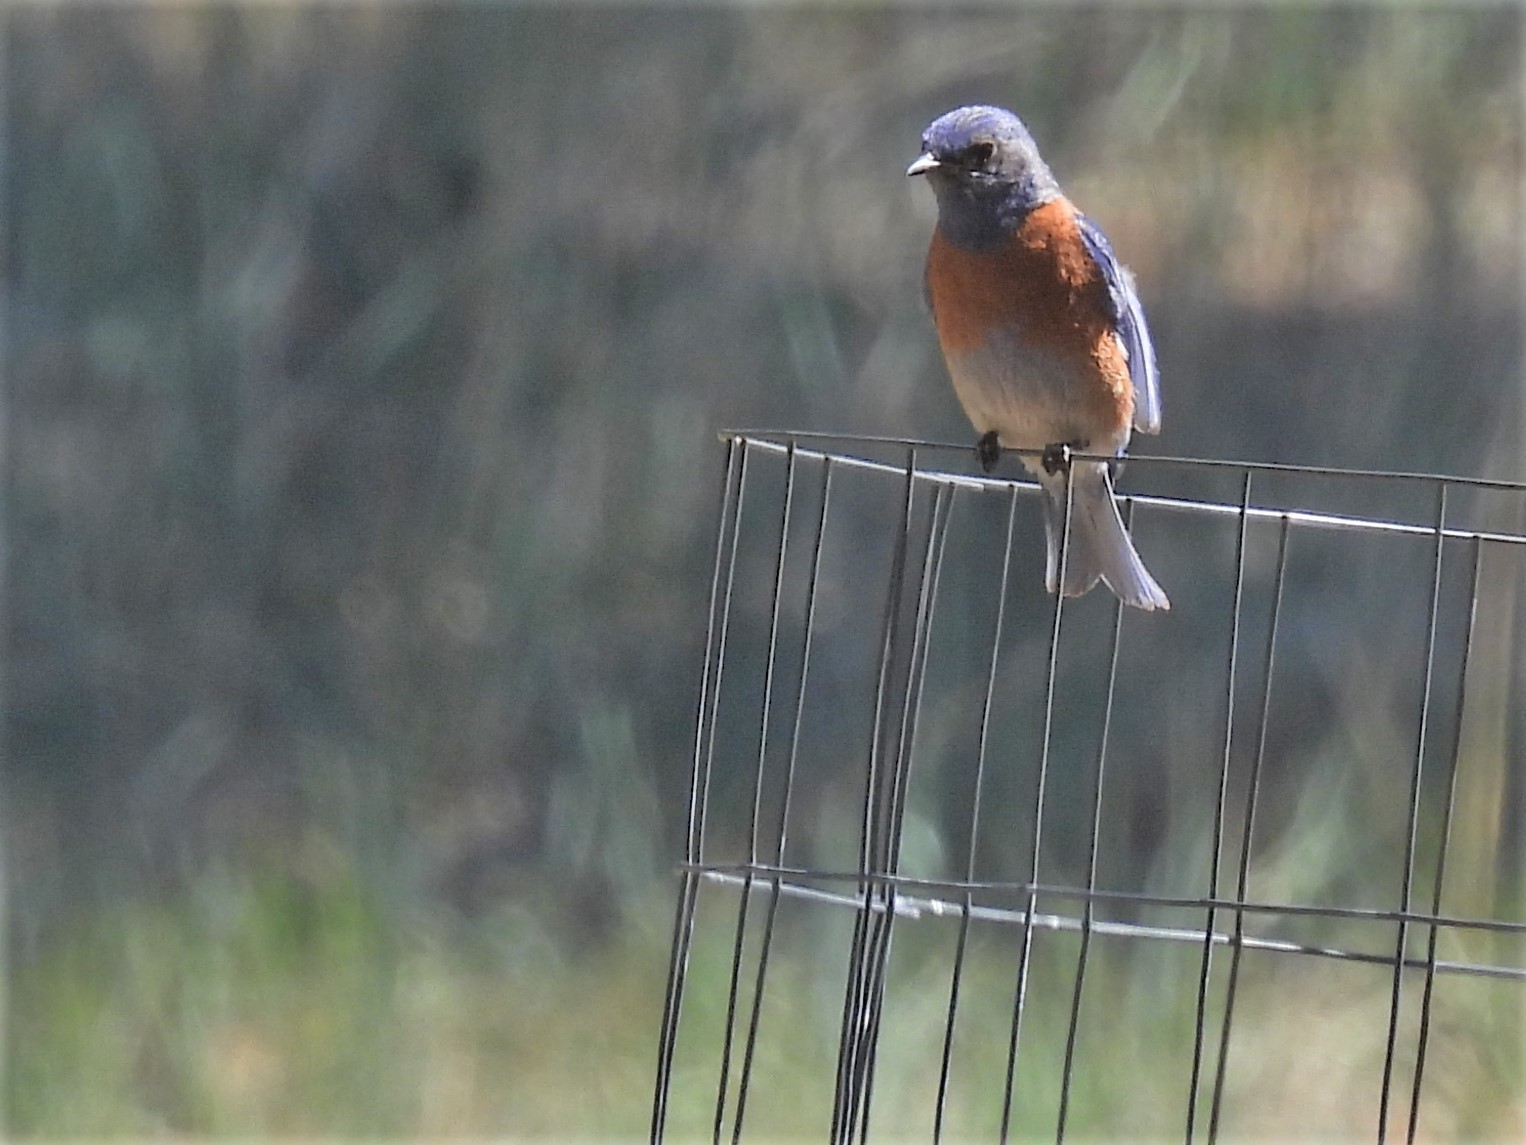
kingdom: Animalia
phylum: Chordata
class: Aves
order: Passeriformes
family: Turdidae
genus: Sialia
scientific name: Sialia mexicana
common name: Western bluebird
